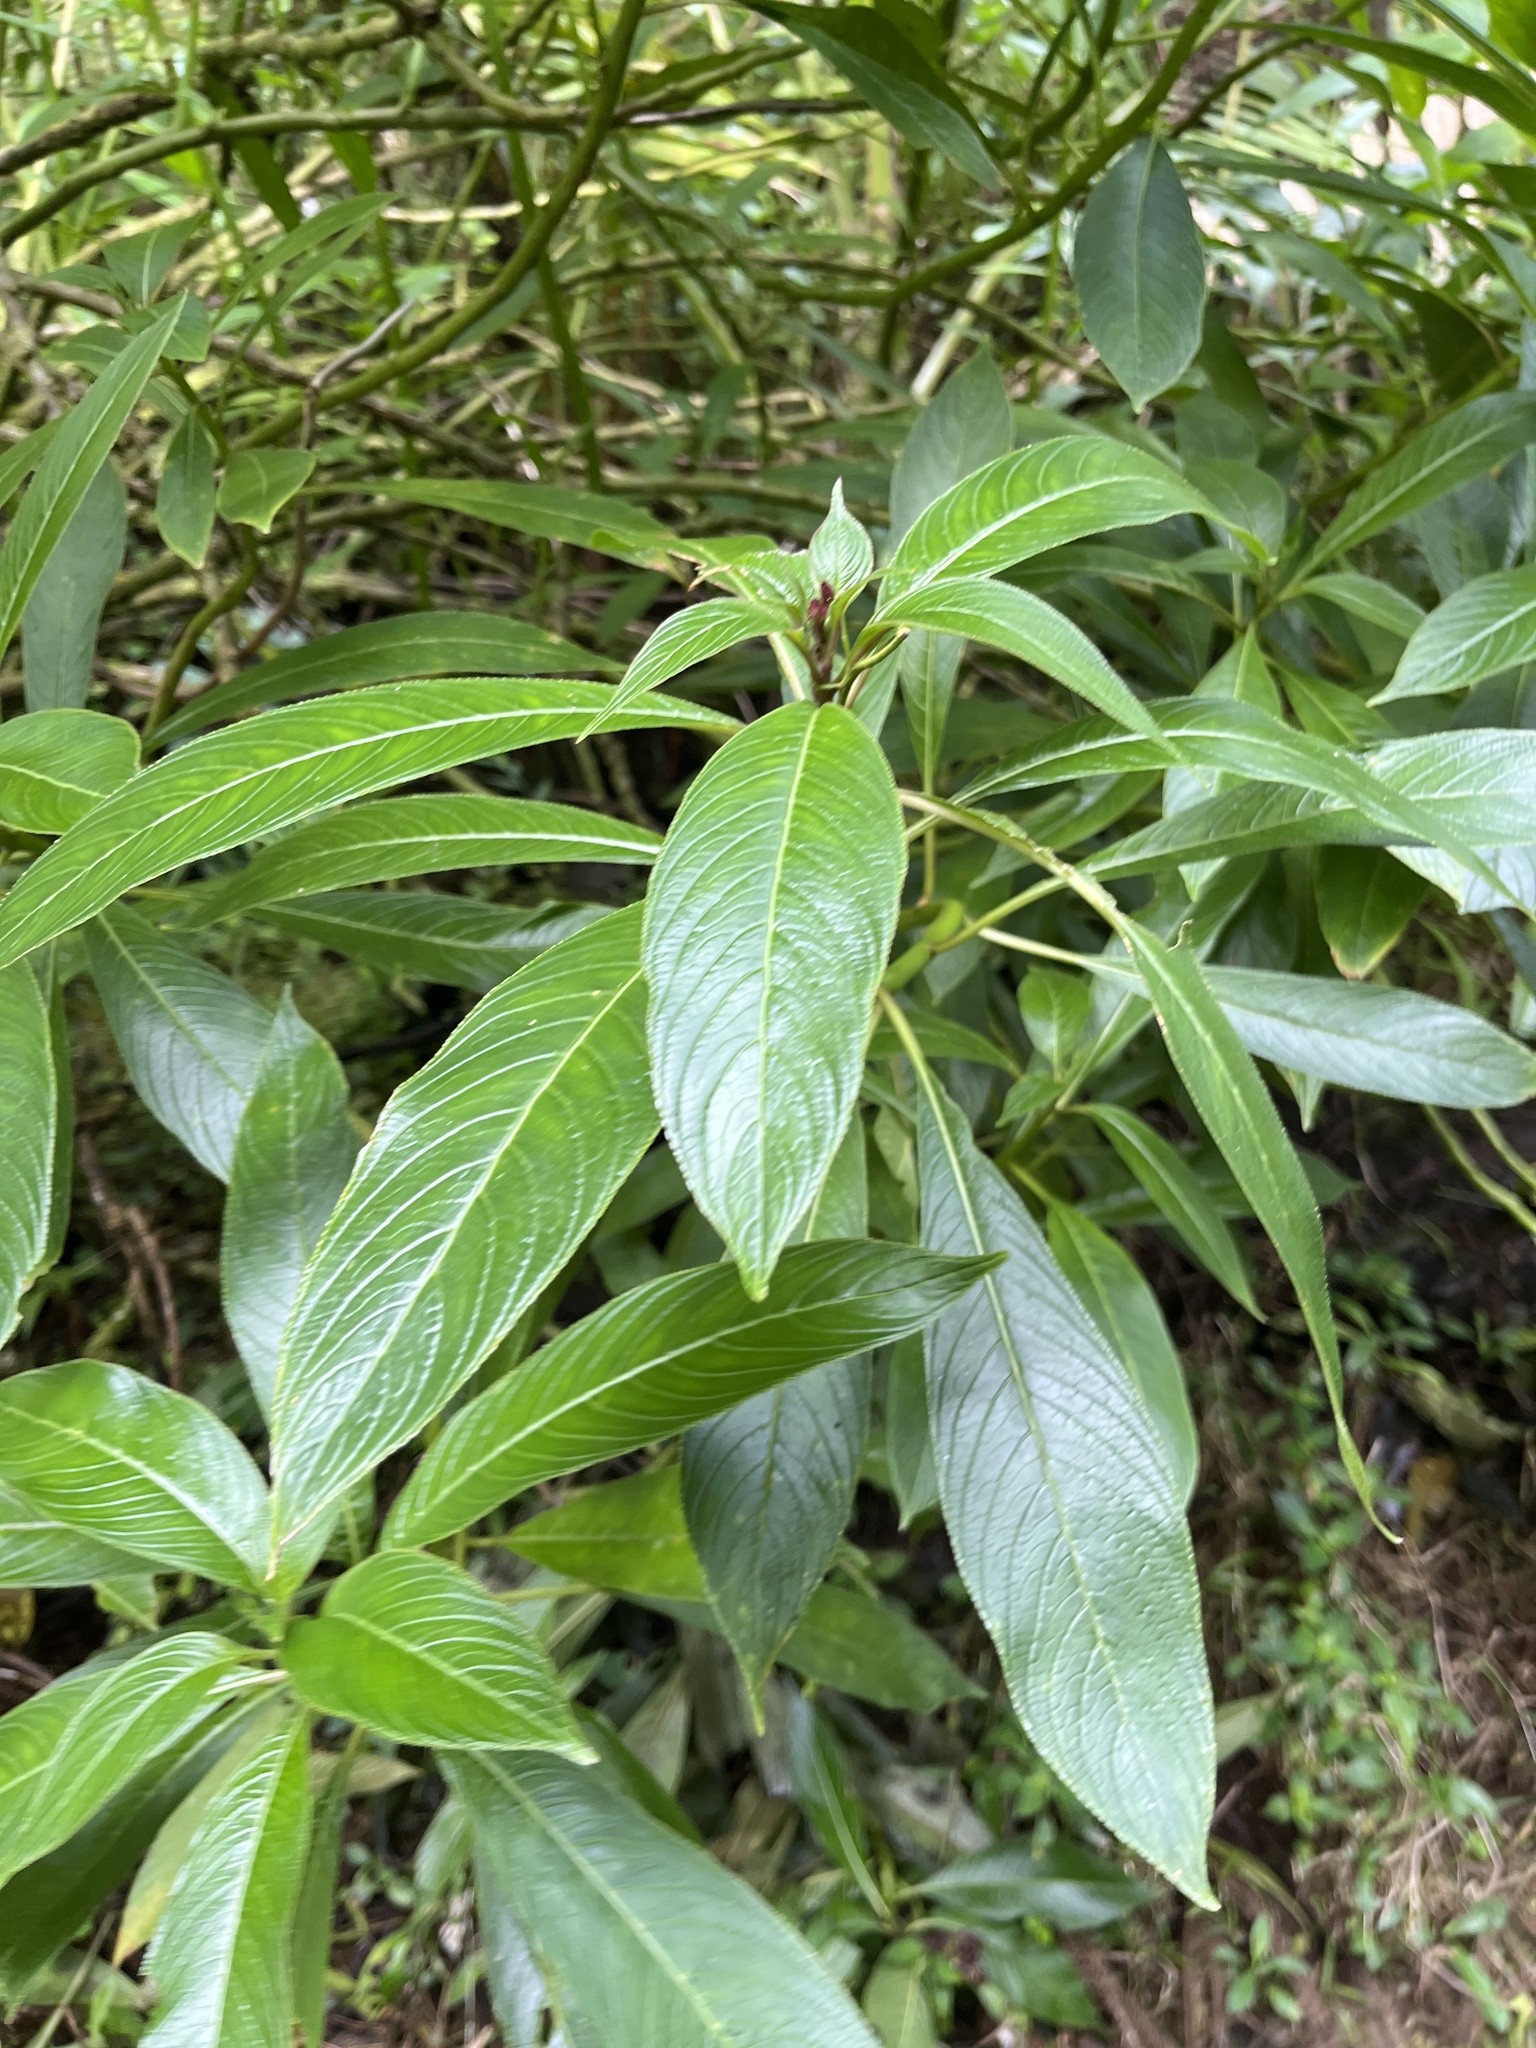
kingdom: Plantae
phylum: Tracheophyta
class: Magnoliopsida
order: Asterales
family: Campanulaceae
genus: Lobelia
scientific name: Lobelia portoricensis
